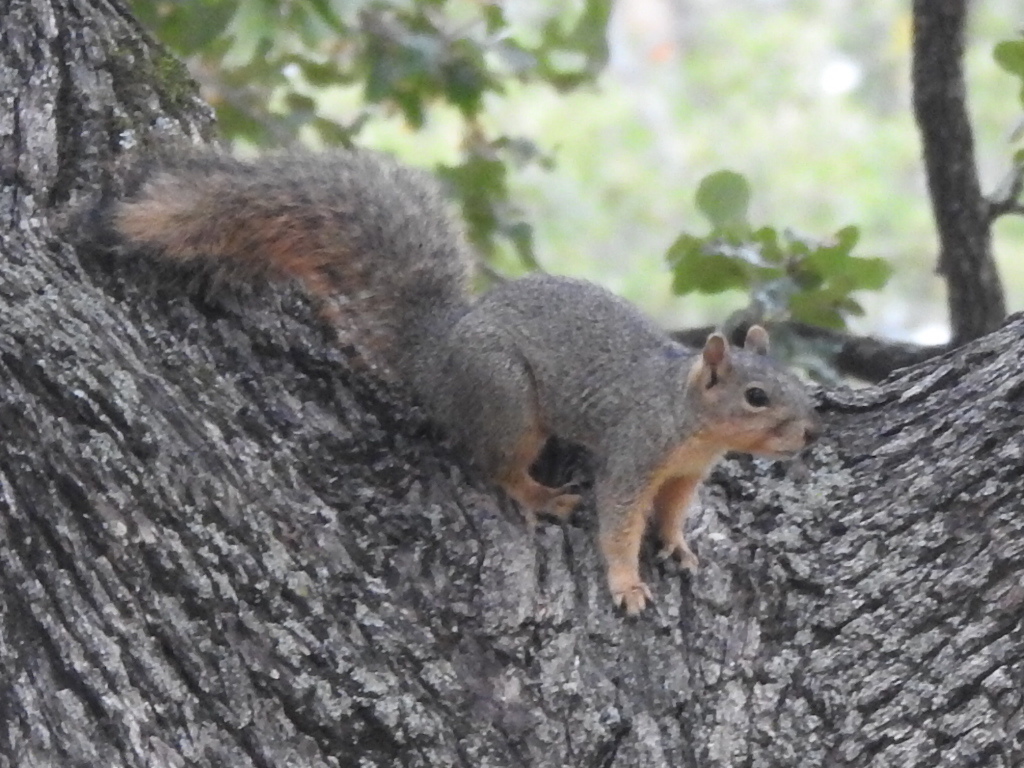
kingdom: Animalia
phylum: Chordata
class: Mammalia
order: Rodentia
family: Sciuridae
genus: Sciurus
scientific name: Sciurus niger
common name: Fox squirrel
